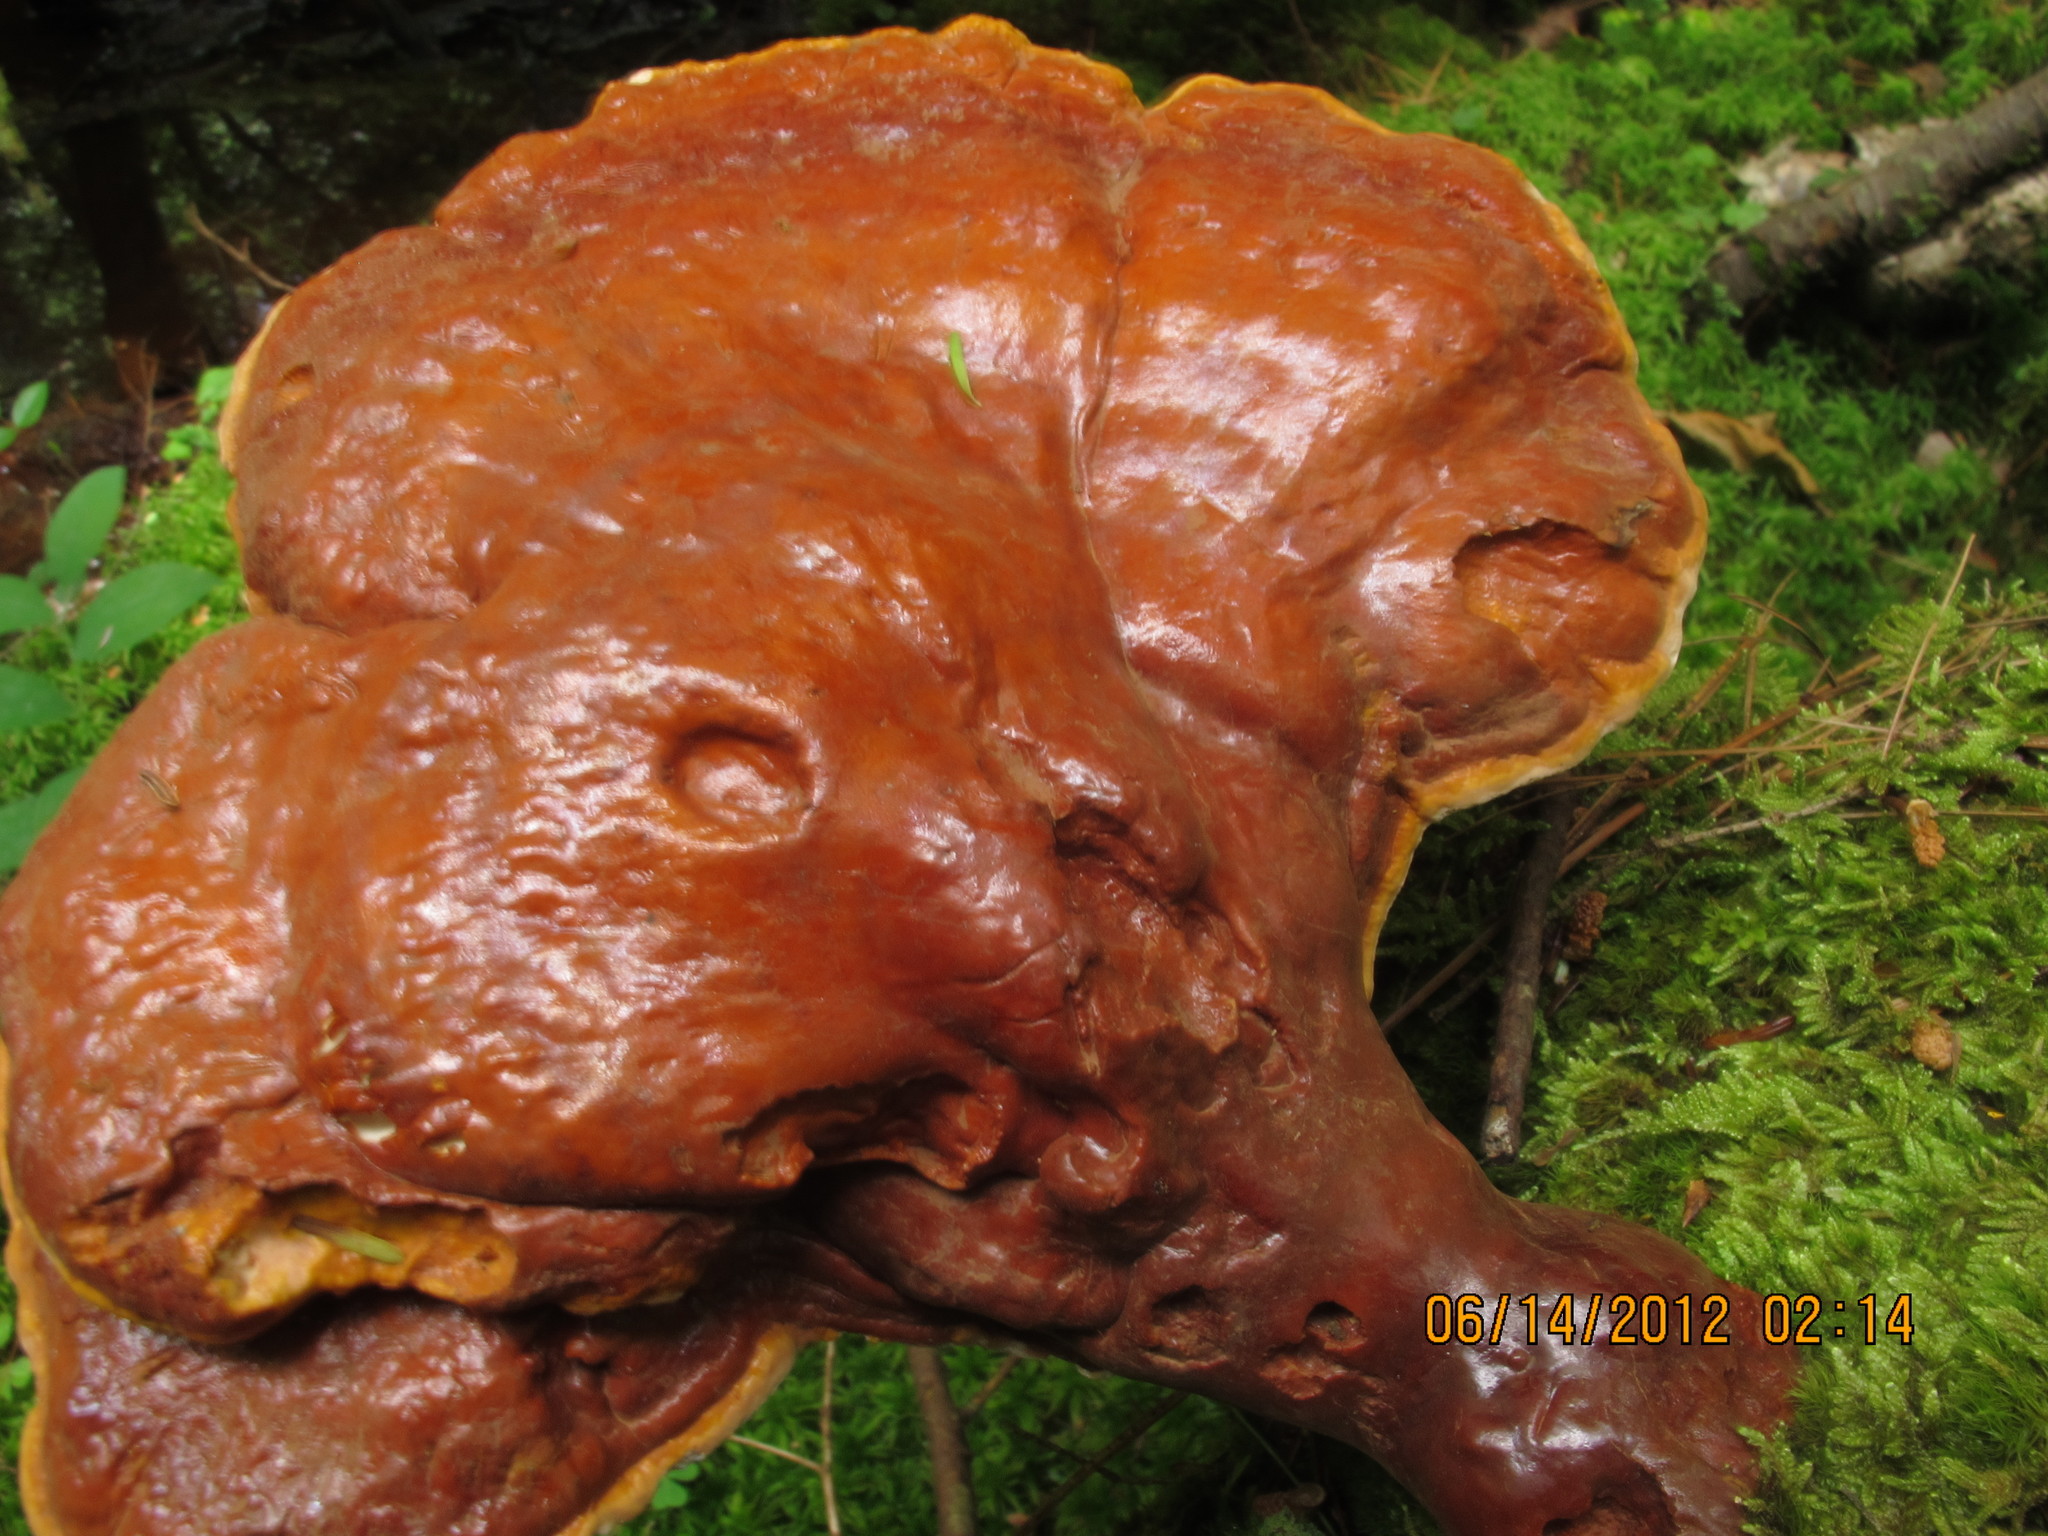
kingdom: Fungi
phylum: Basidiomycota
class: Agaricomycetes
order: Polyporales
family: Polyporaceae
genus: Ganoderma
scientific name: Ganoderma tsugae
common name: Hemlock varnish shelf
